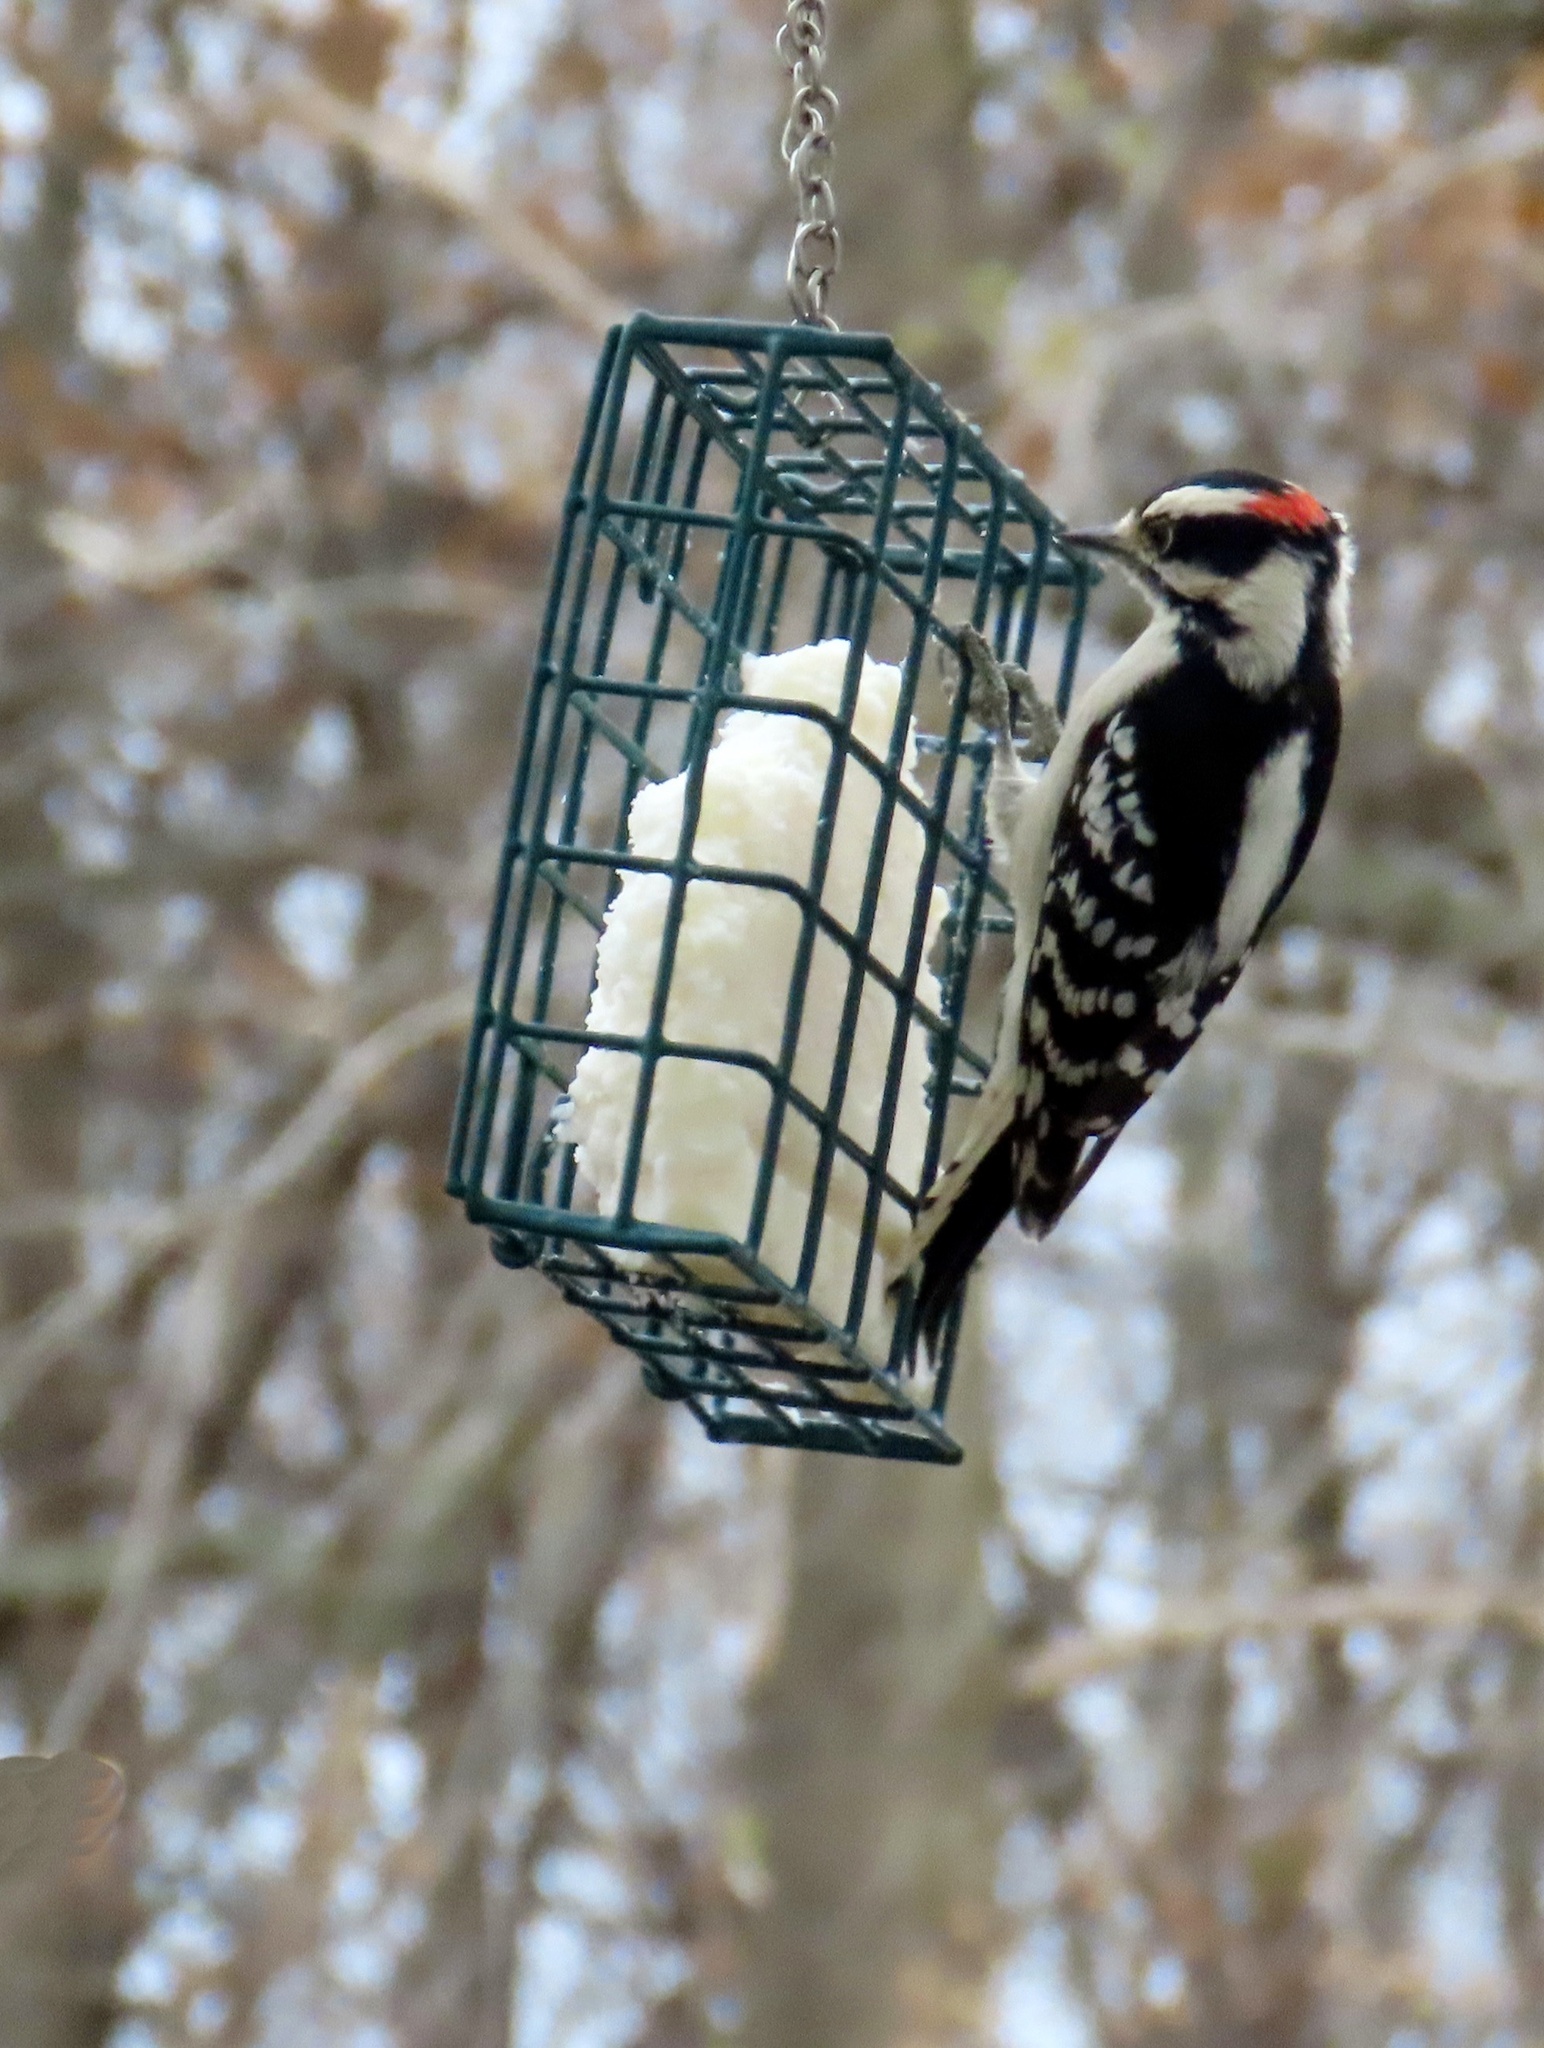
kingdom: Animalia
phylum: Chordata
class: Aves
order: Piciformes
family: Picidae
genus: Dryobates
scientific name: Dryobates pubescens
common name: Downy woodpecker
